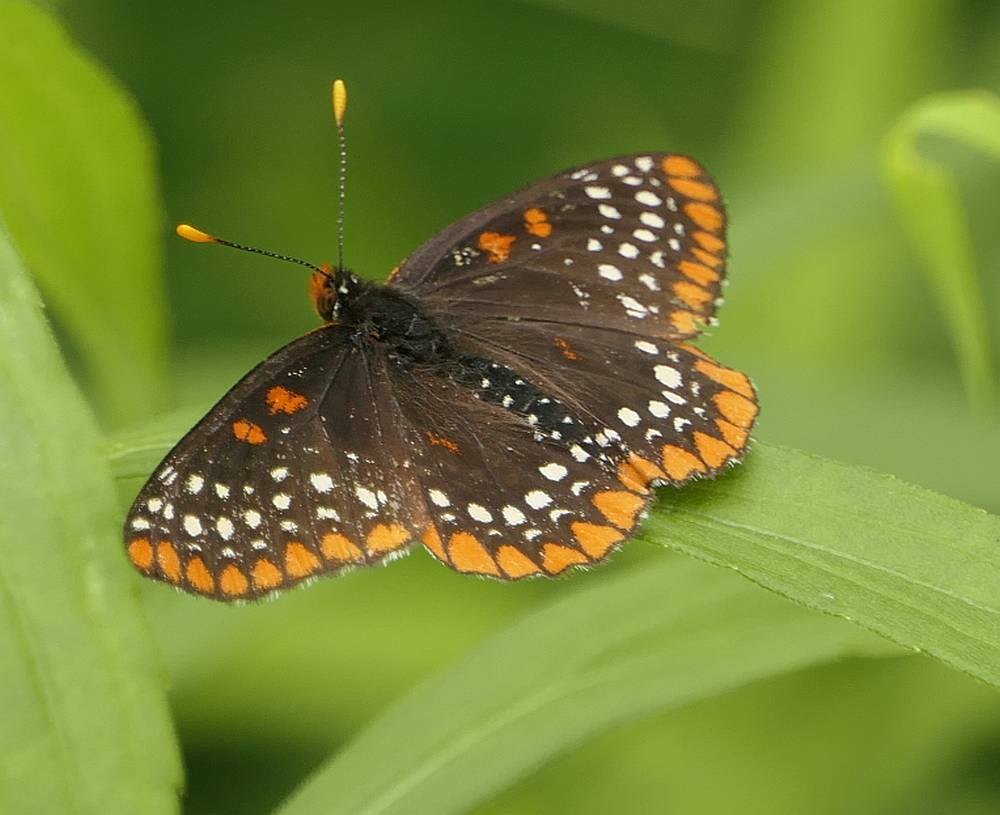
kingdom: Animalia
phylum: Arthropoda
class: Insecta
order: Lepidoptera
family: Nymphalidae
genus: Euphydryas
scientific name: Euphydryas phaeton
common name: Baltimore checkerspot
